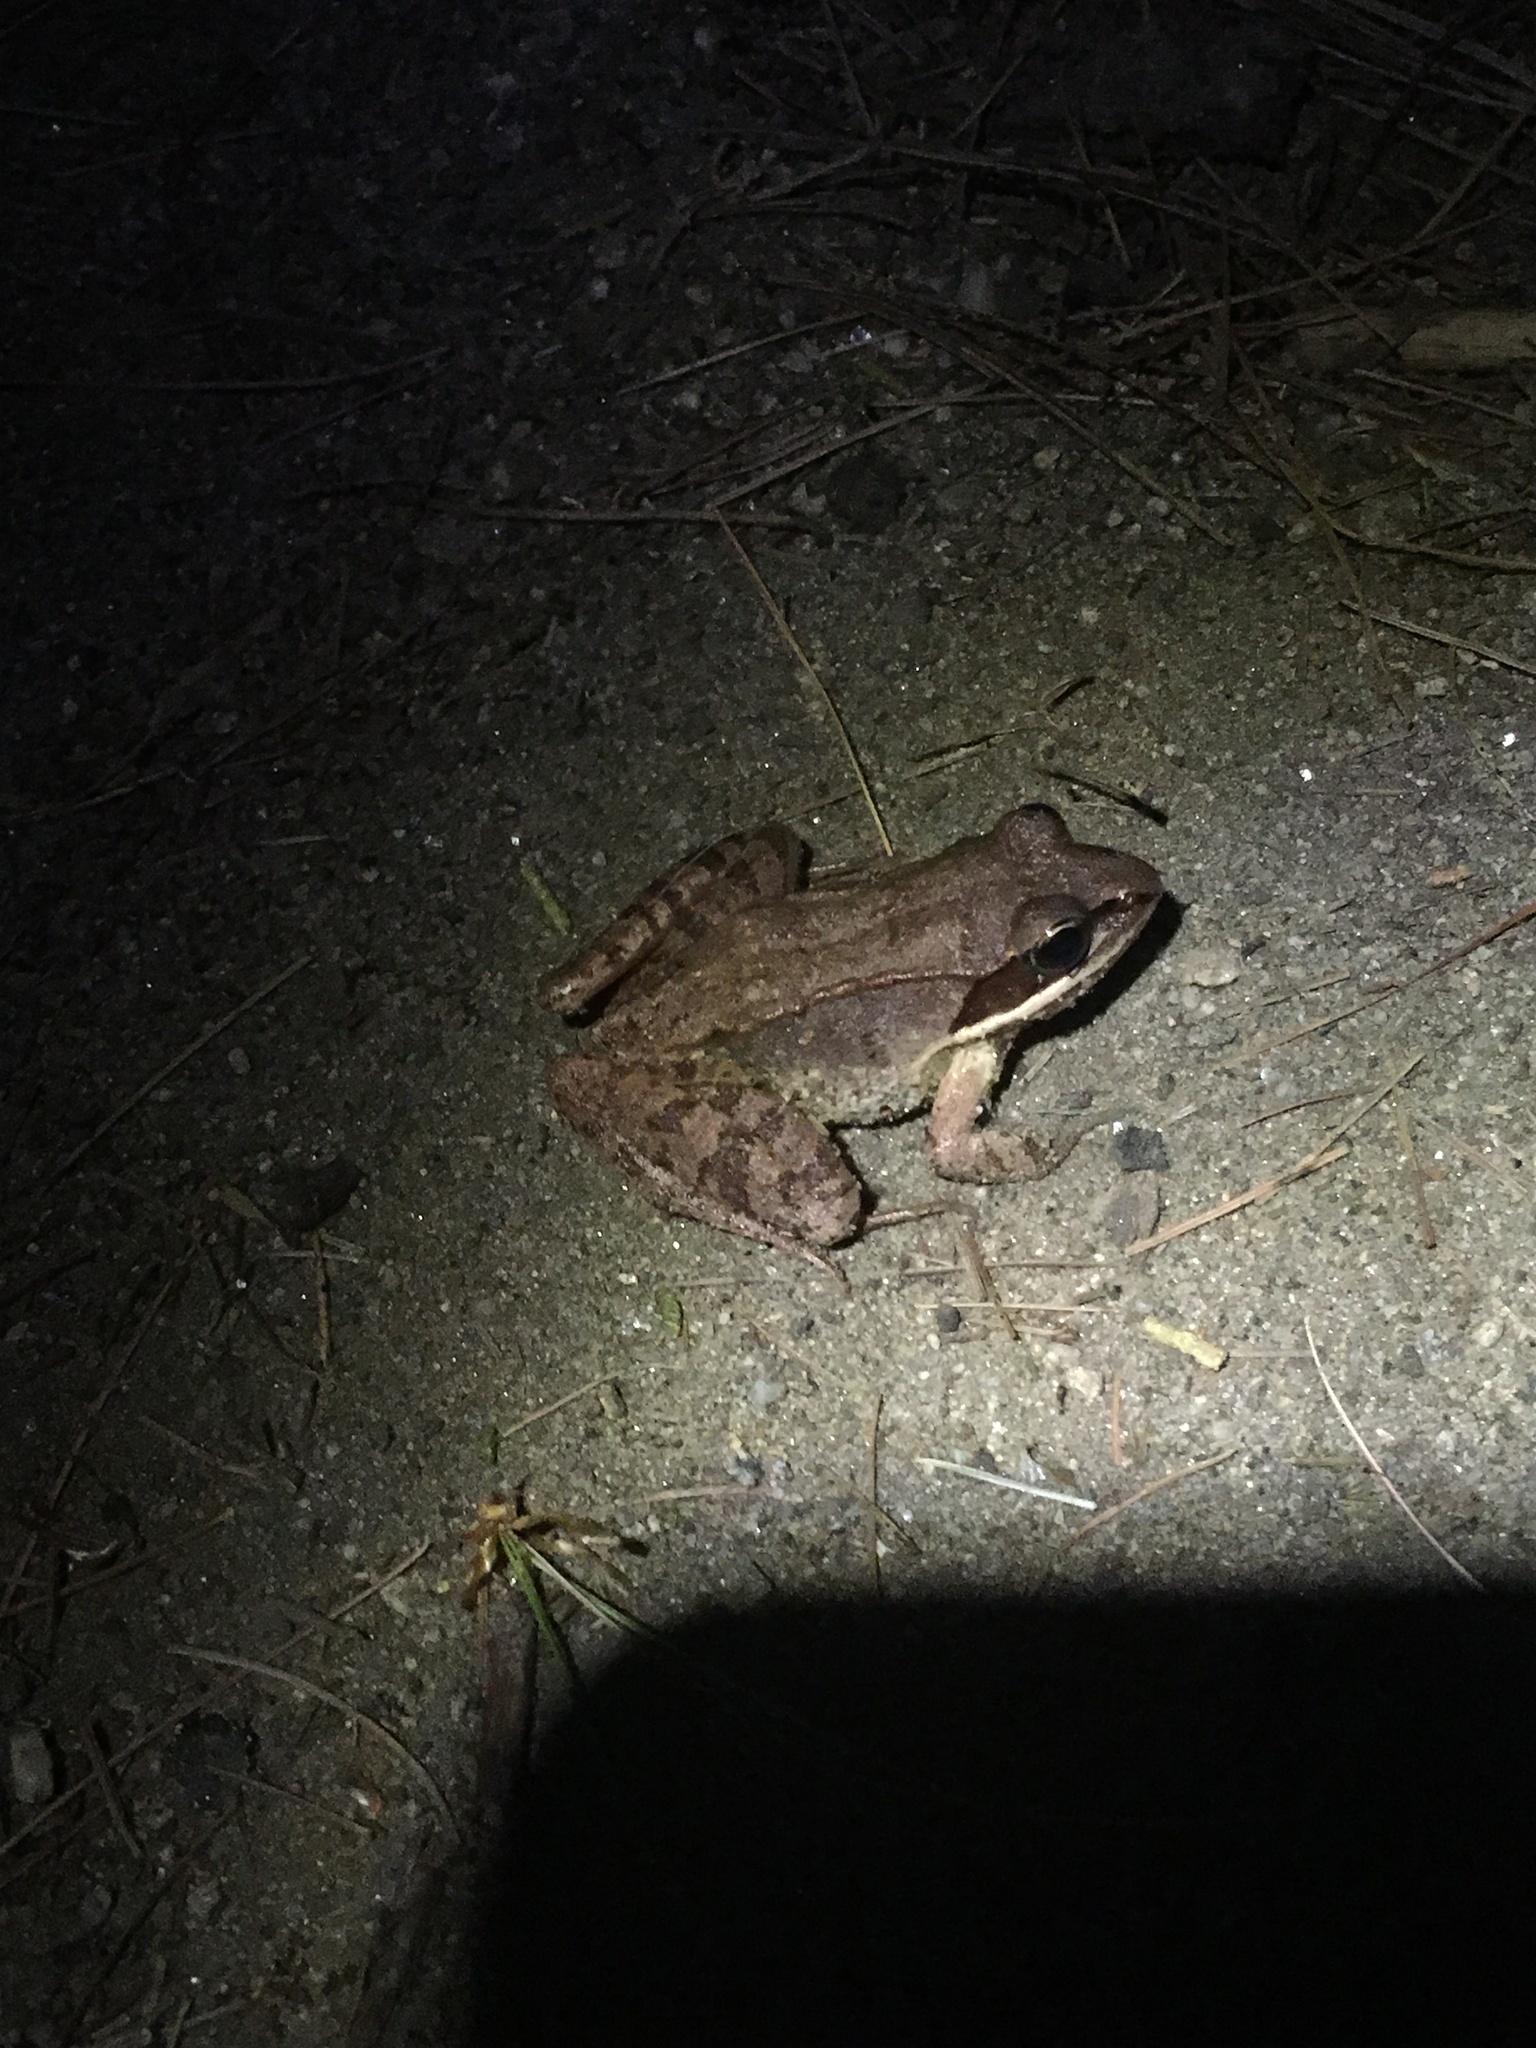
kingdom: Animalia
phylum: Chordata
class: Amphibia
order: Anura
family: Ranidae
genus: Lithobates
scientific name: Lithobates sylvaticus
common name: Wood frog
